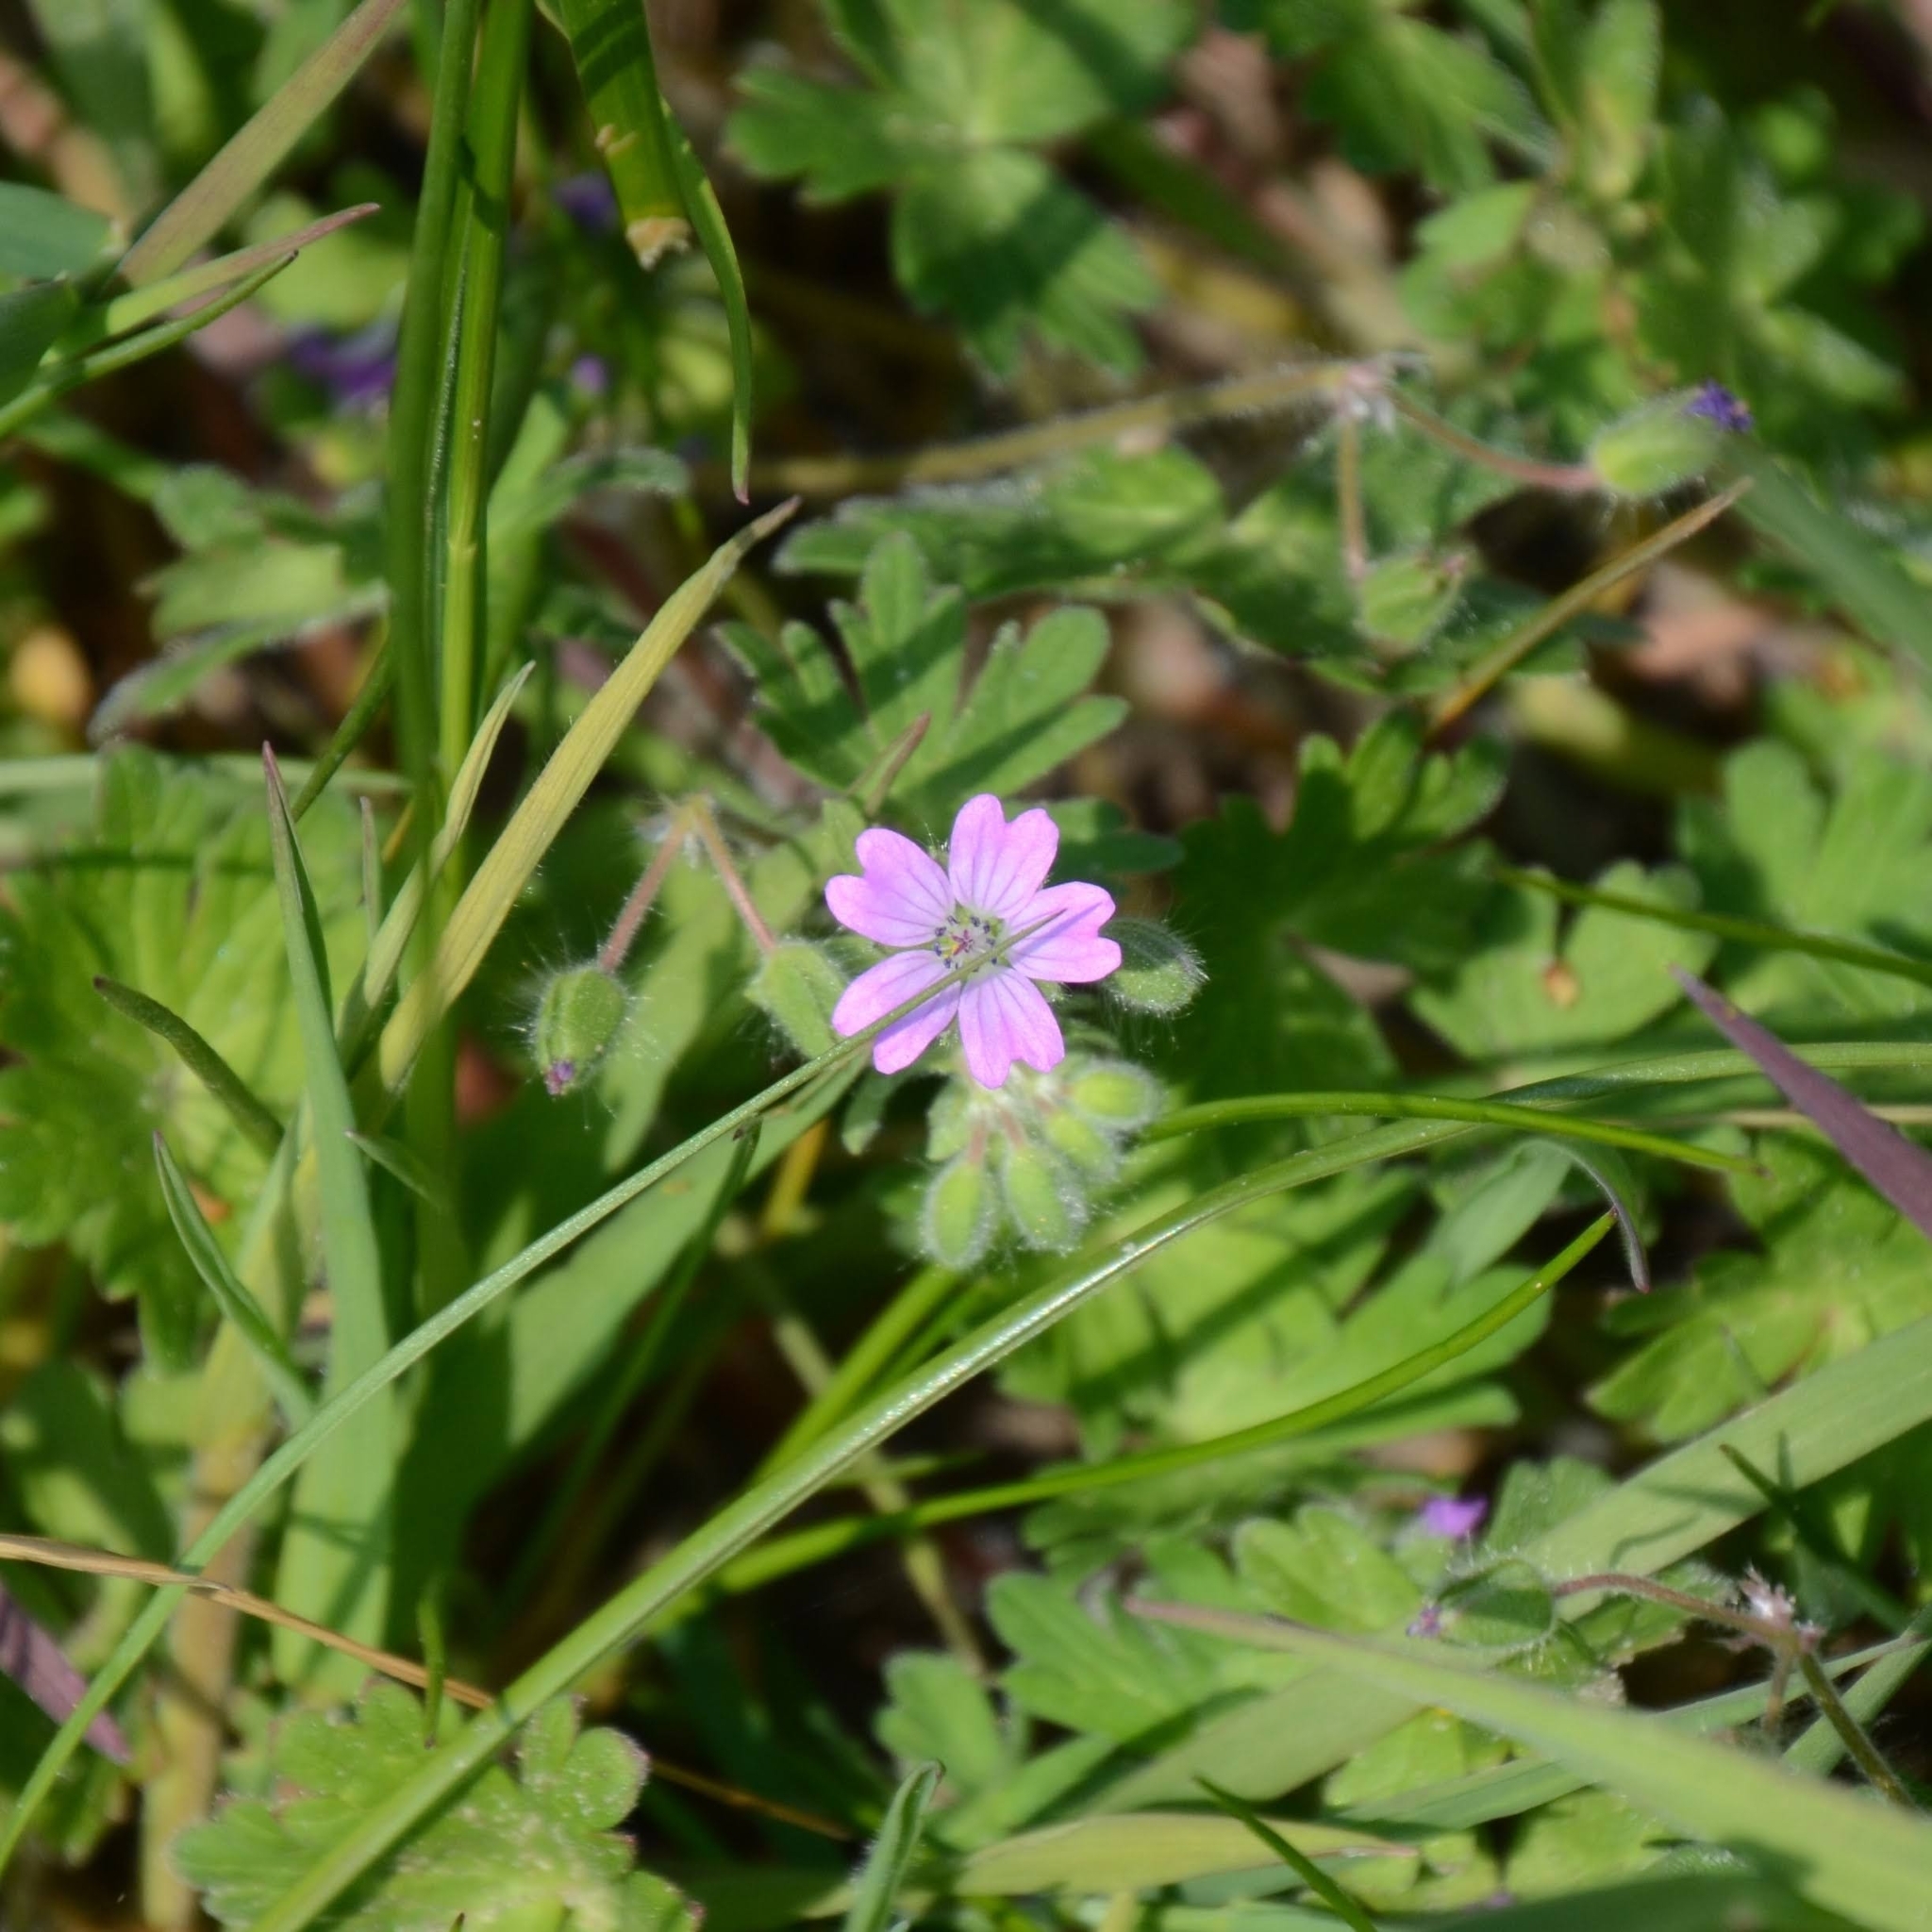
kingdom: Plantae
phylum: Tracheophyta
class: Magnoliopsida
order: Geraniales
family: Geraniaceae
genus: Geranium
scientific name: Geranium molle
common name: Dove's-foot crane's-bill
